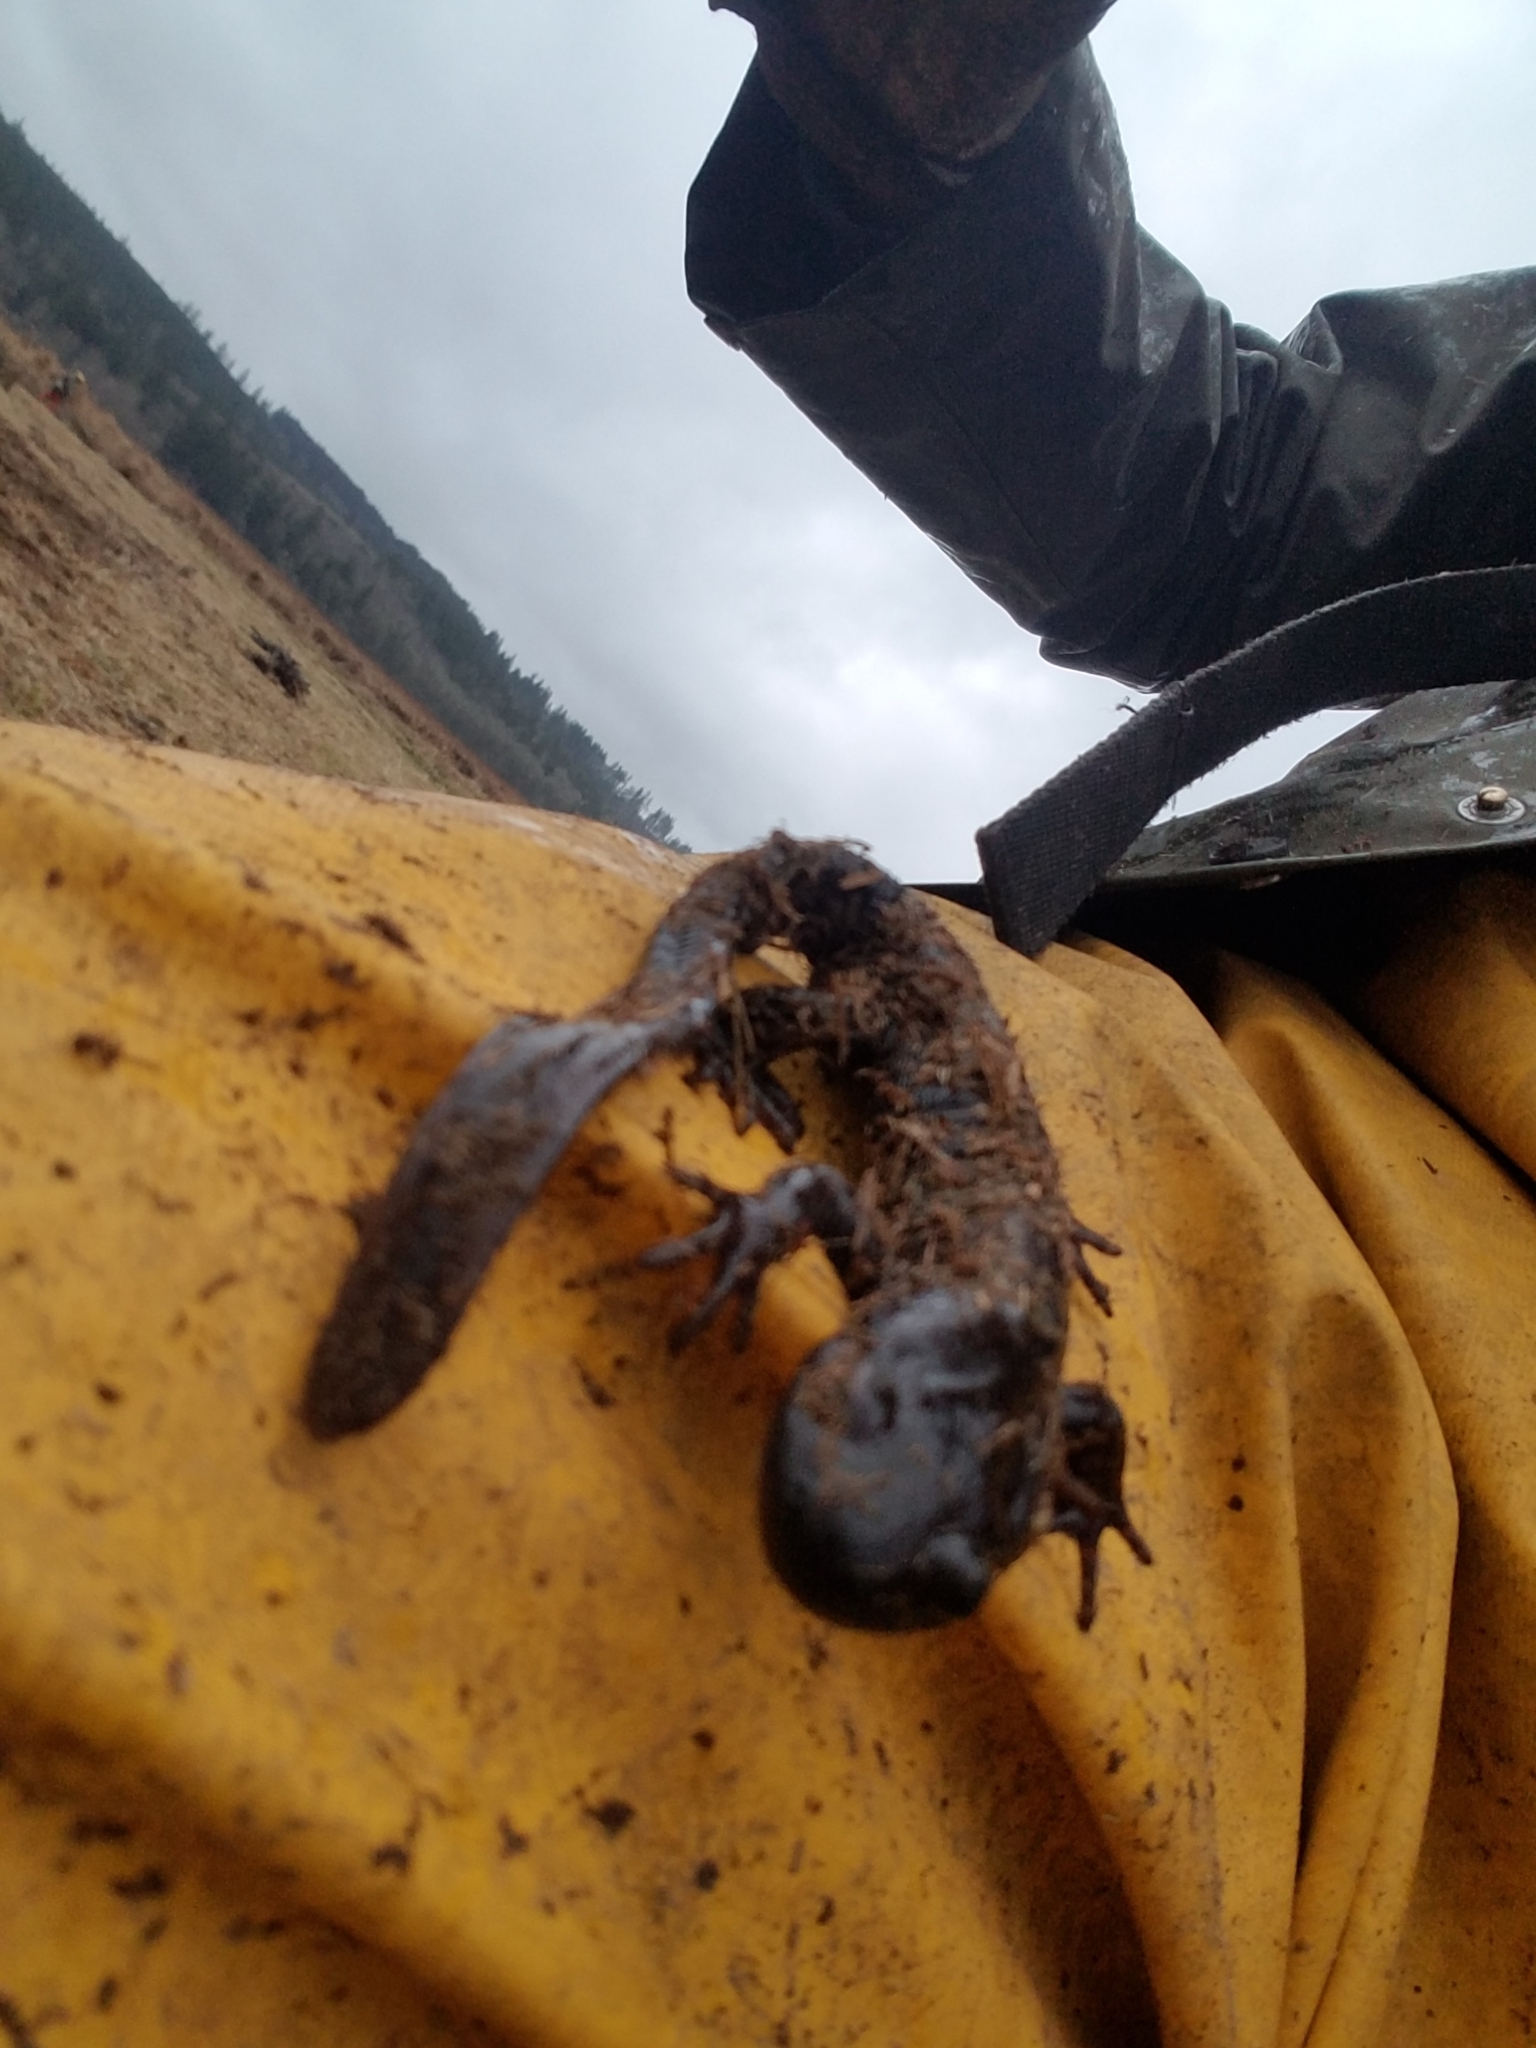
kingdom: Animalia
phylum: Chordata
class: Amphibia
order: Caudata
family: Ambystomatidae
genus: Ambystoma
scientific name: Ambystoma gracile
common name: Northwestern salamander
